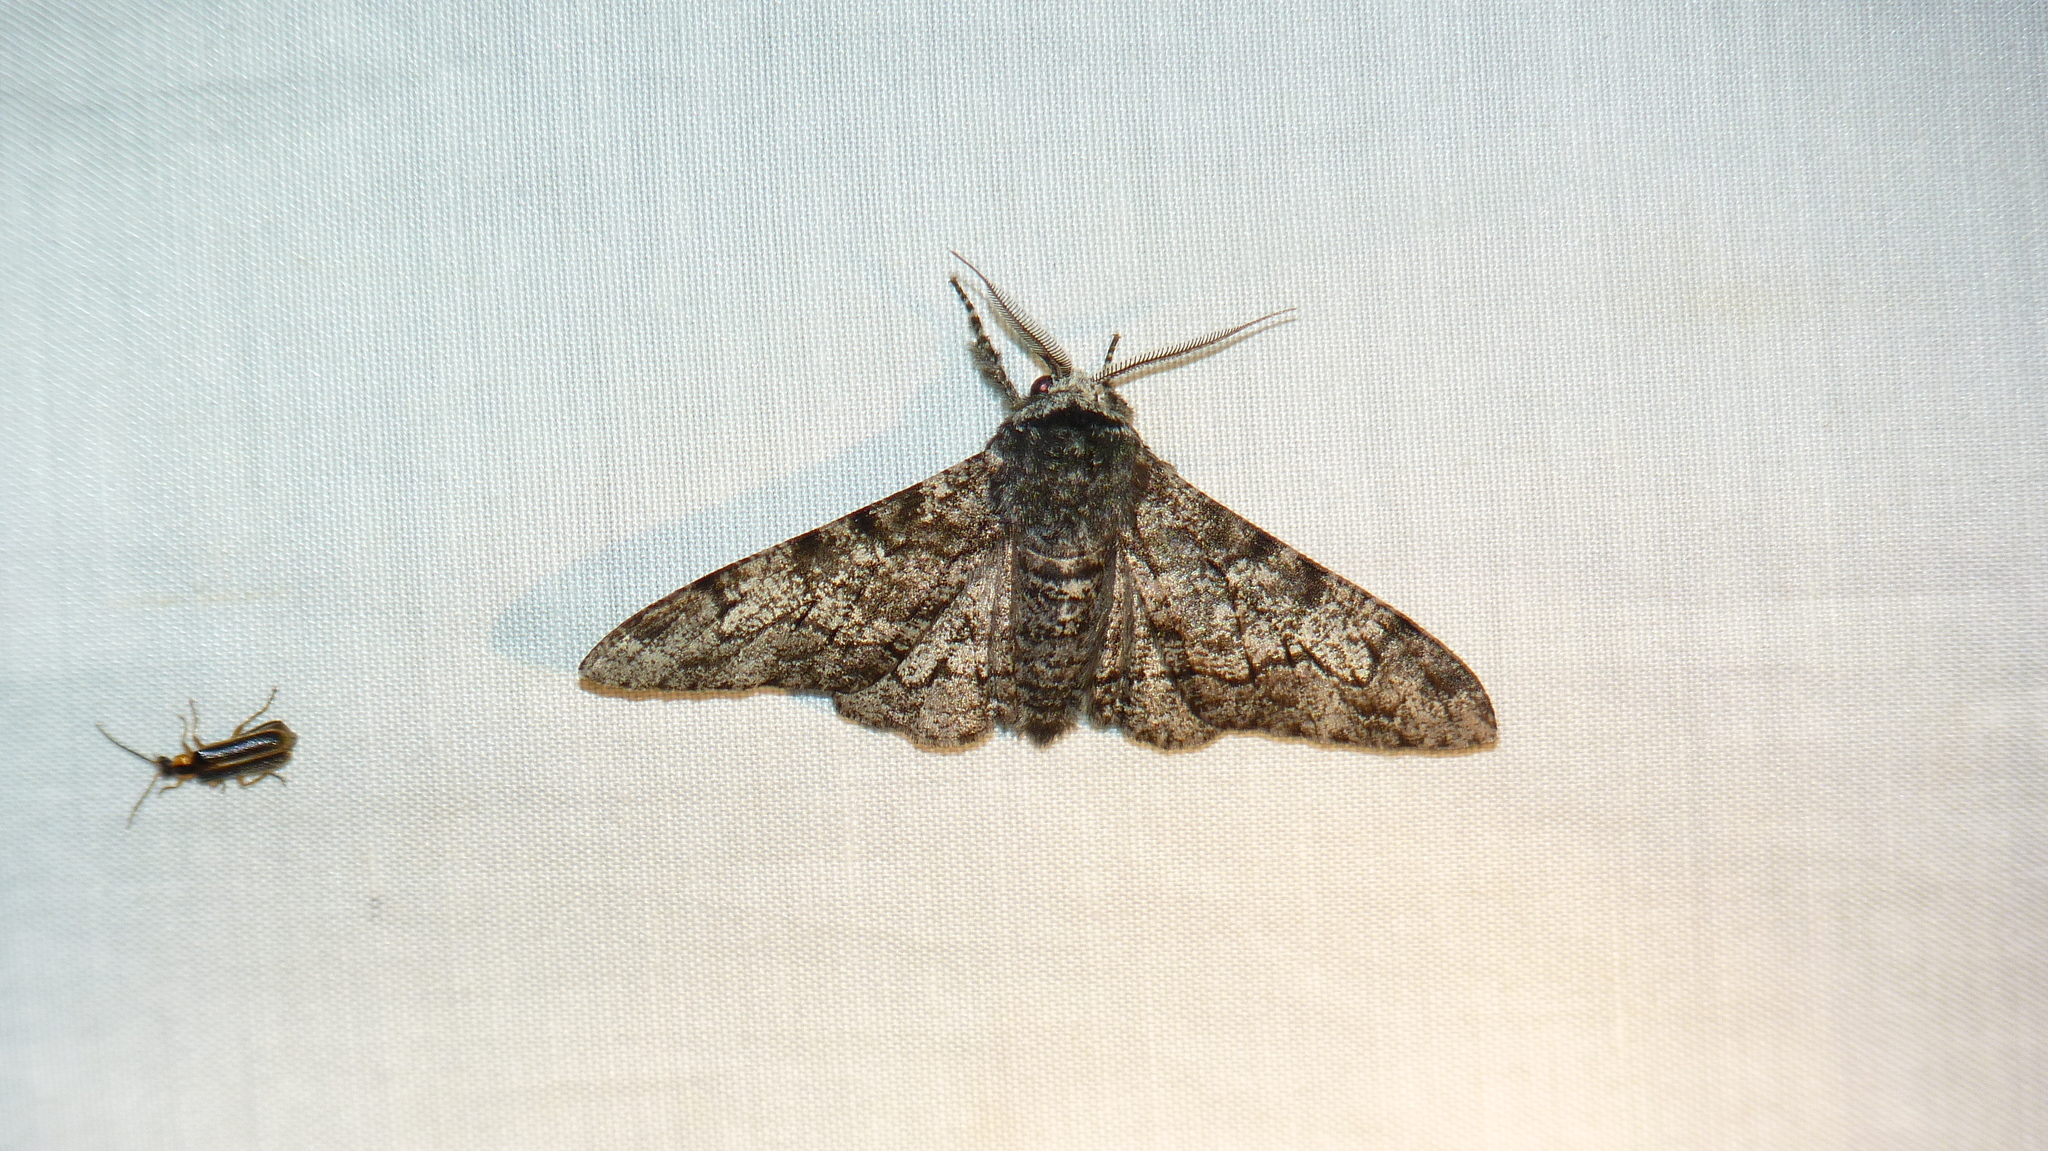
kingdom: Animalia
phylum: Arthropoda
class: Insecta
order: Lepidoptera
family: Geometridae
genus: Biston
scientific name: Biston betularia
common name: Peppered moth
